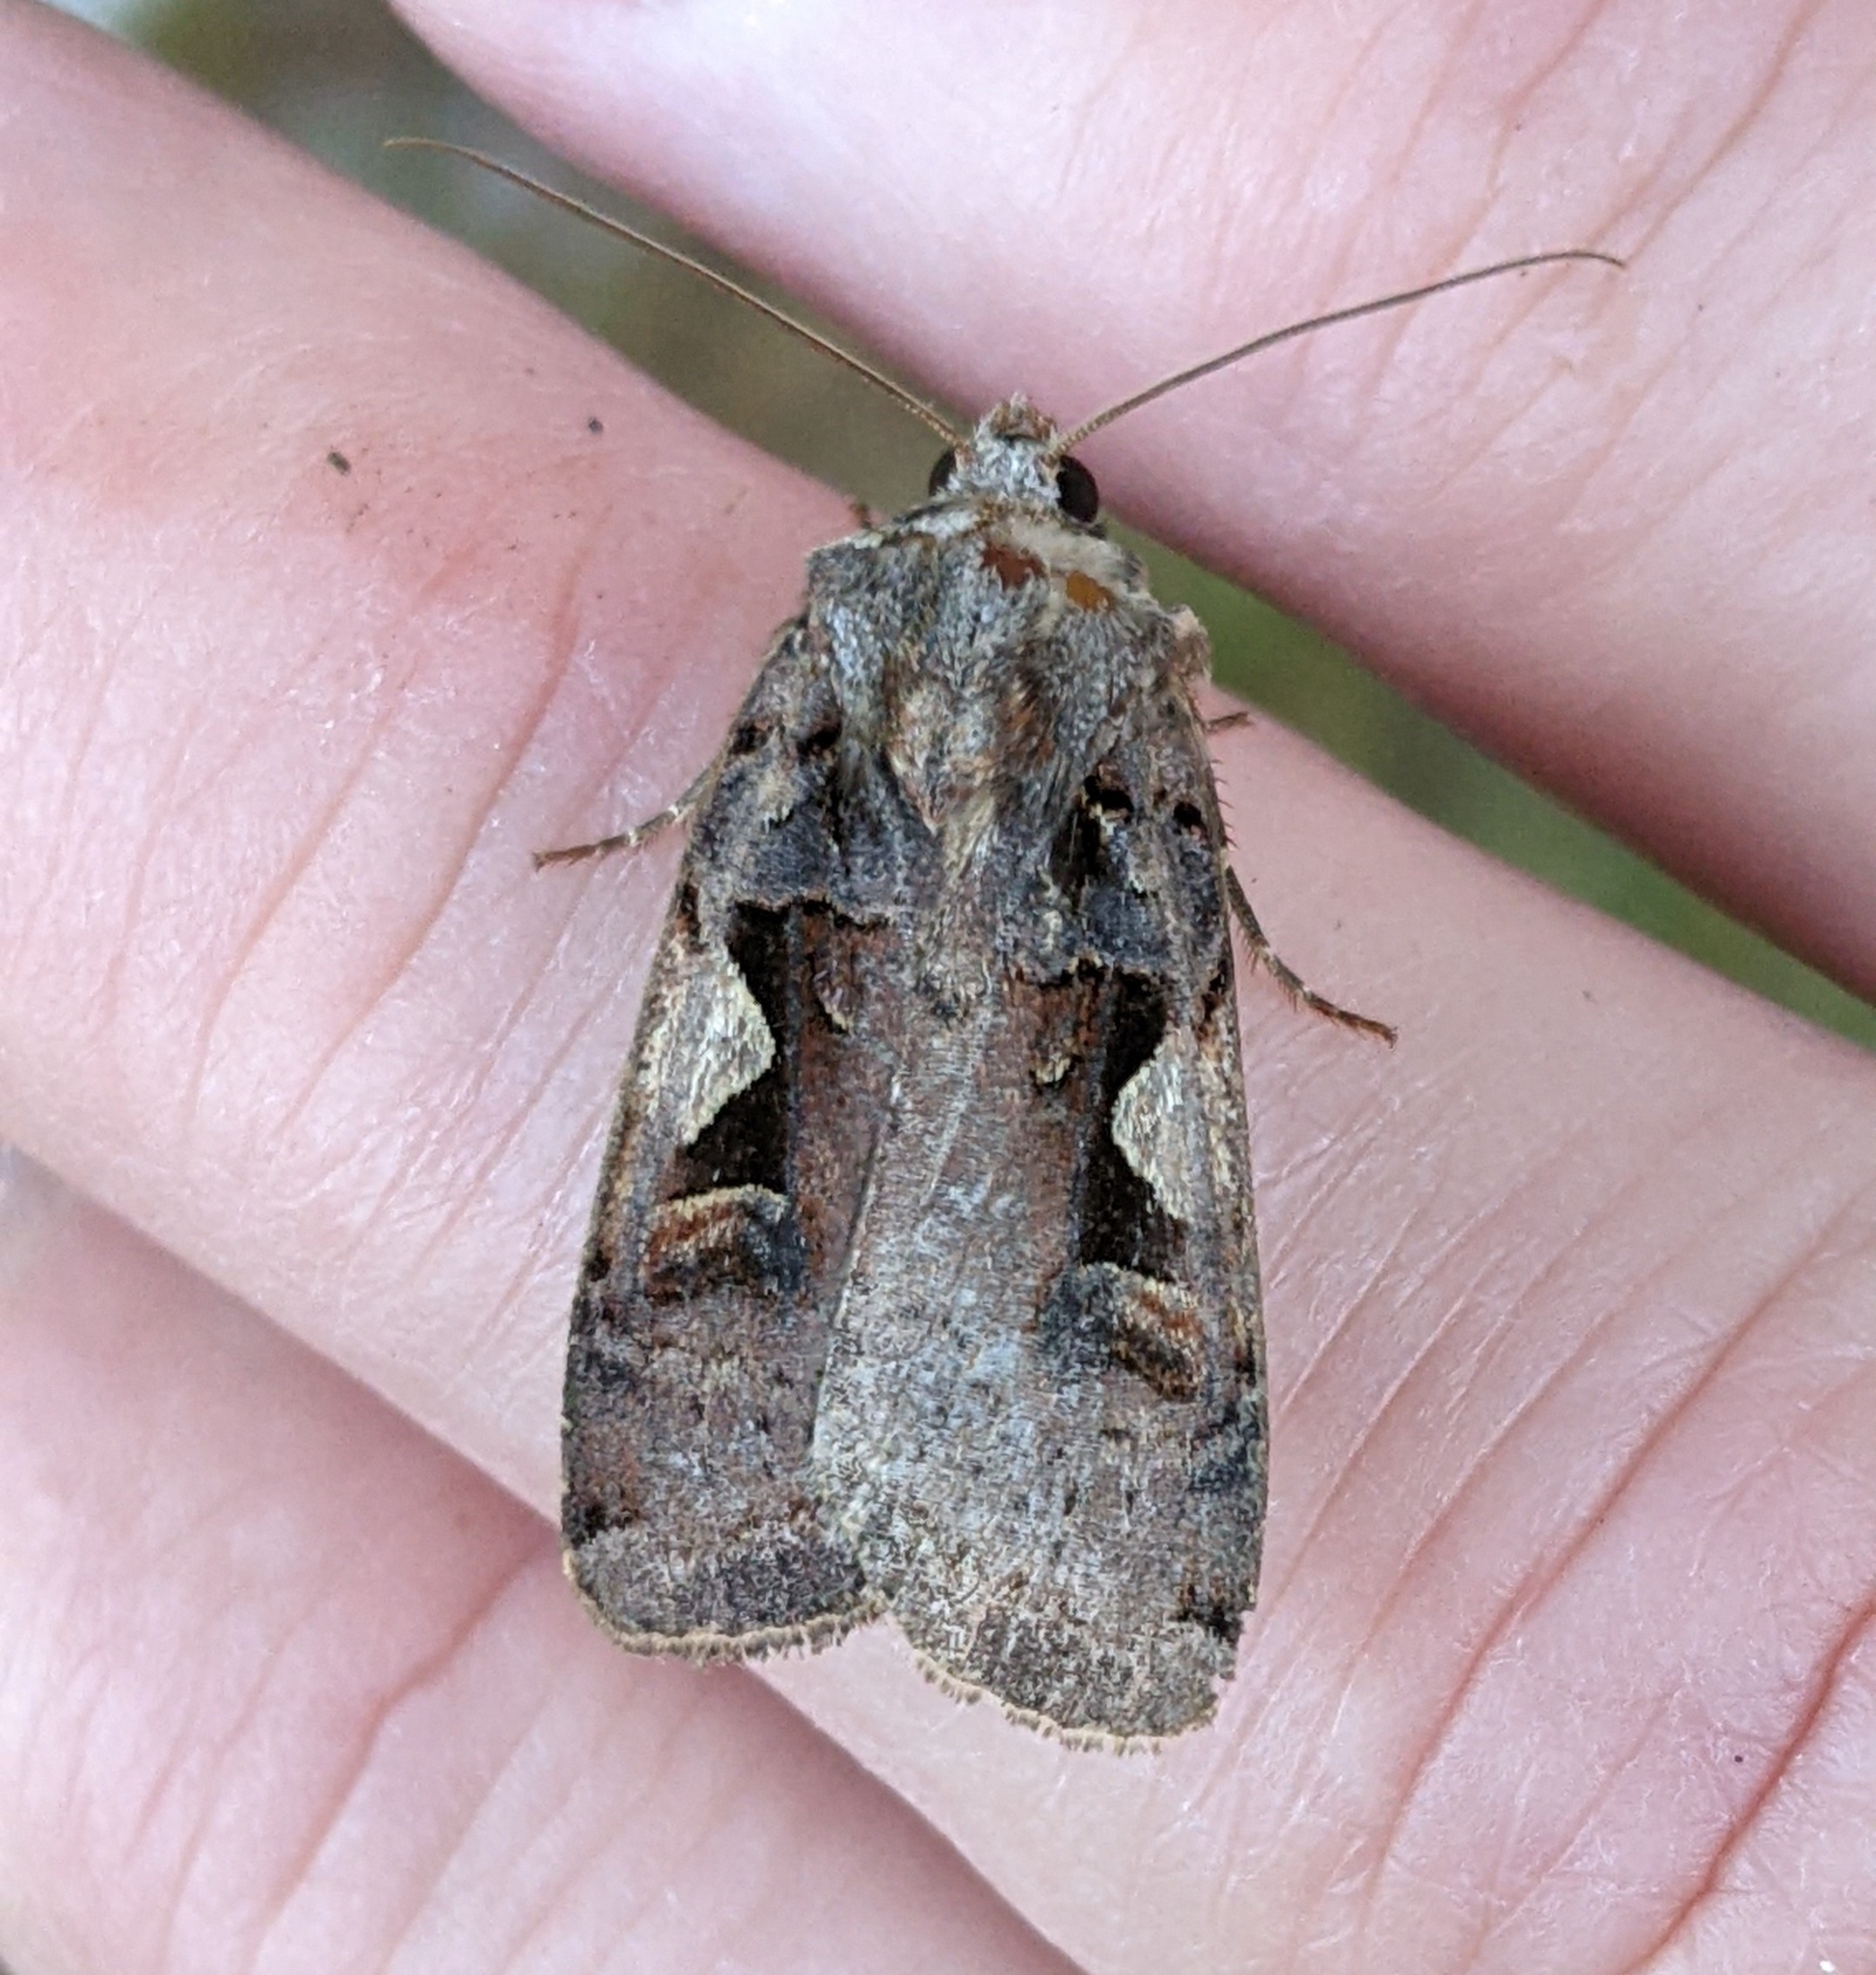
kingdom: Animalia
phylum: Arthropoda
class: Insecta
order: Lepidoptera
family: Noctuidae
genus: Xestia
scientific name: Xestia c-nigrum
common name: Setaceous hebrew character
